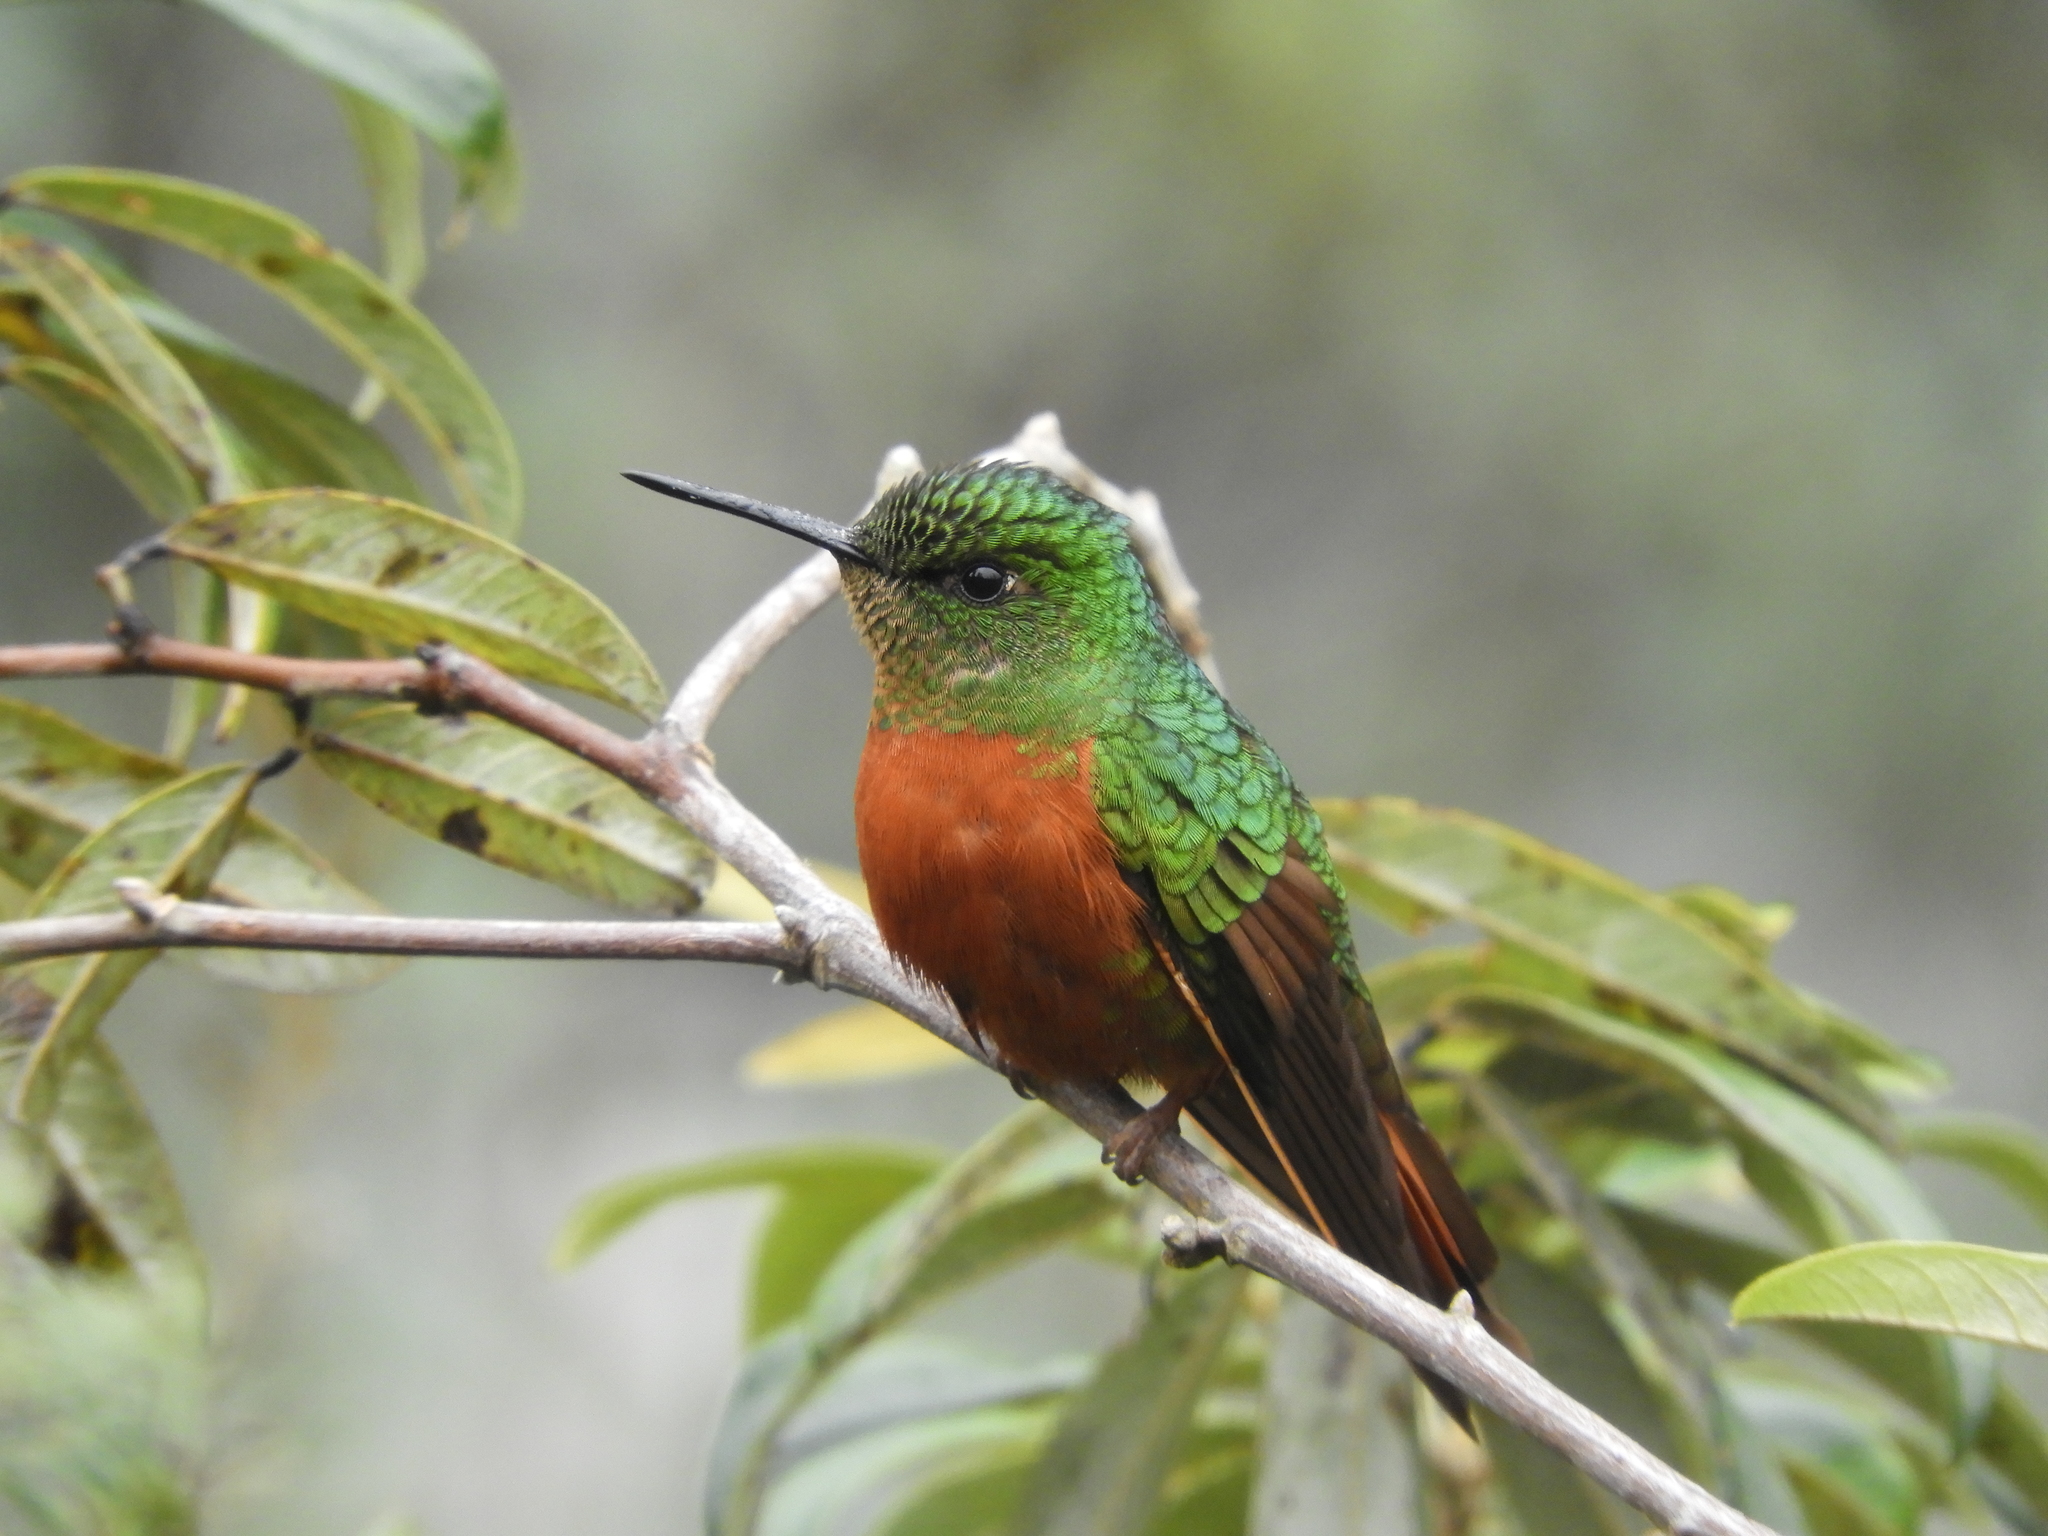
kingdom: Animalia
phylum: Chordata
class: Aves
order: Apodiformes
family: Trochilidae
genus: Boissonneaua
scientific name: Boissonneaua matthewsii
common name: Chestnut-breasted coronet
